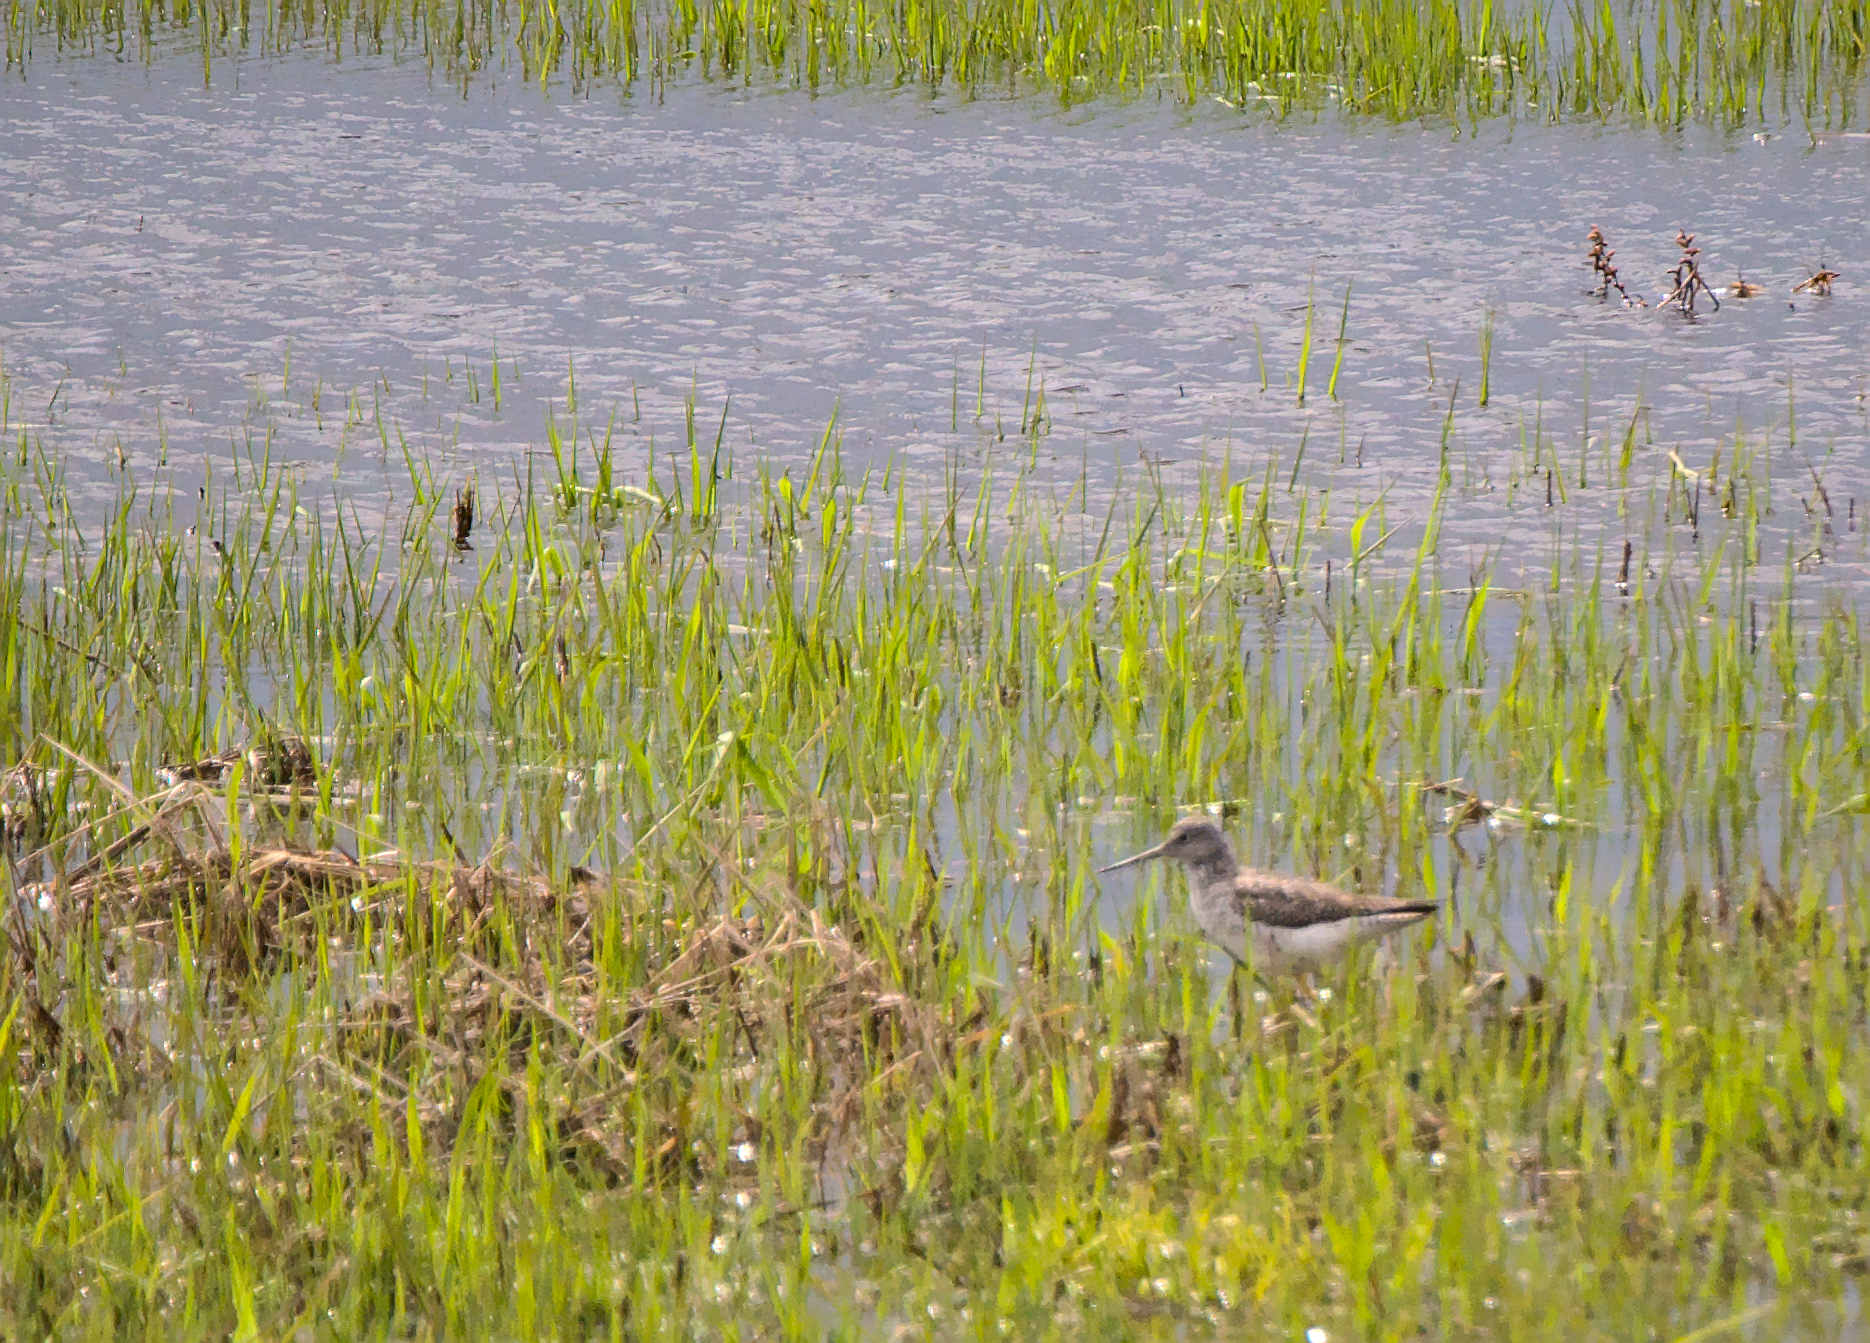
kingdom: Animalia
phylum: Chordata
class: Aves
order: Charadriiformes
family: Scolopacidae
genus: Tringa
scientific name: Tringa melanoleuca
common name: Greater yellowlegs
